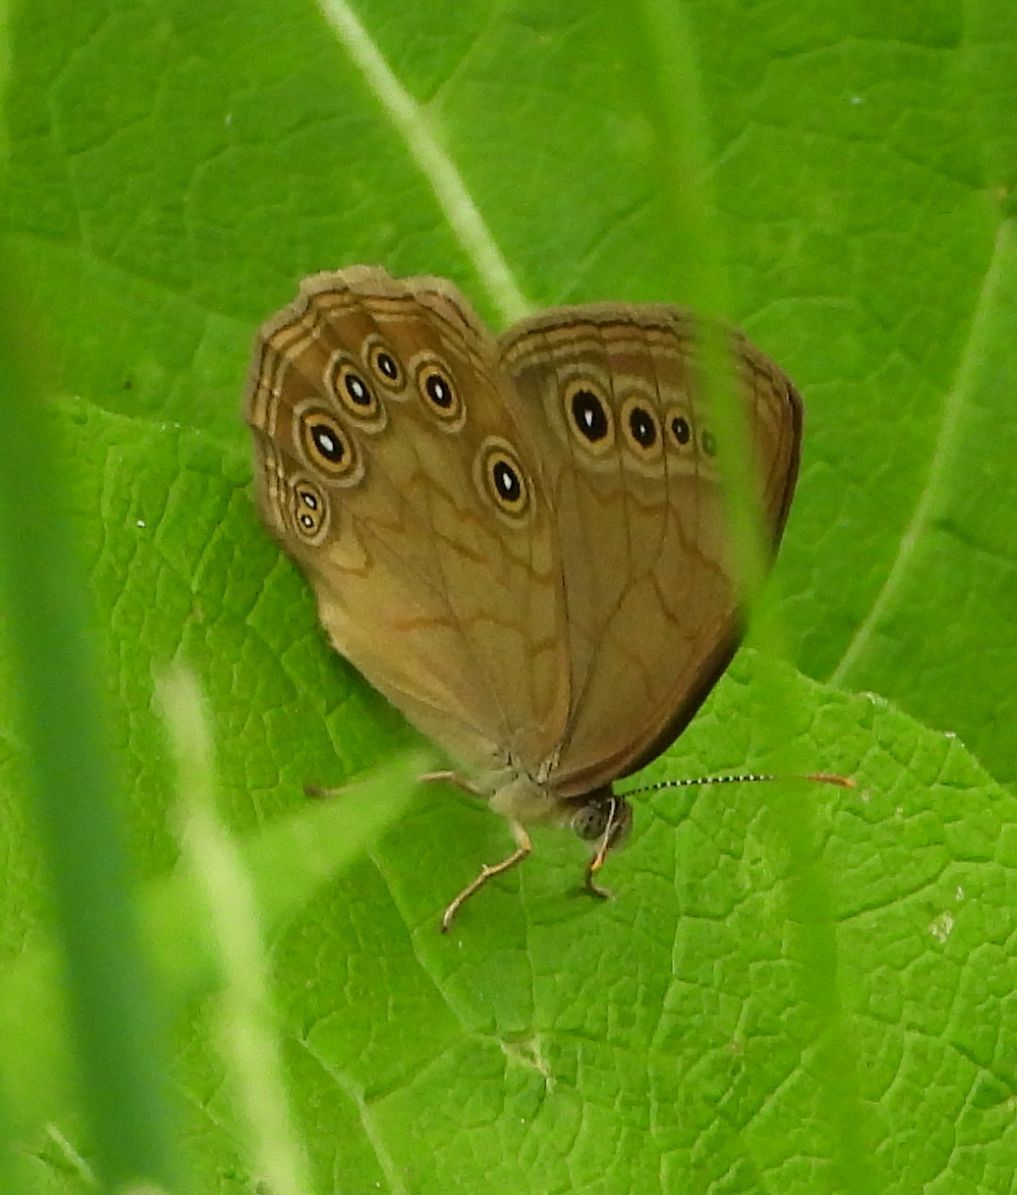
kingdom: Animalia
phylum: Arthropoda
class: Insecta
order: Lepidoptera
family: Nymphalidae
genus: Lethe
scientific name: Lethe eurydice
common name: Eyed brown
